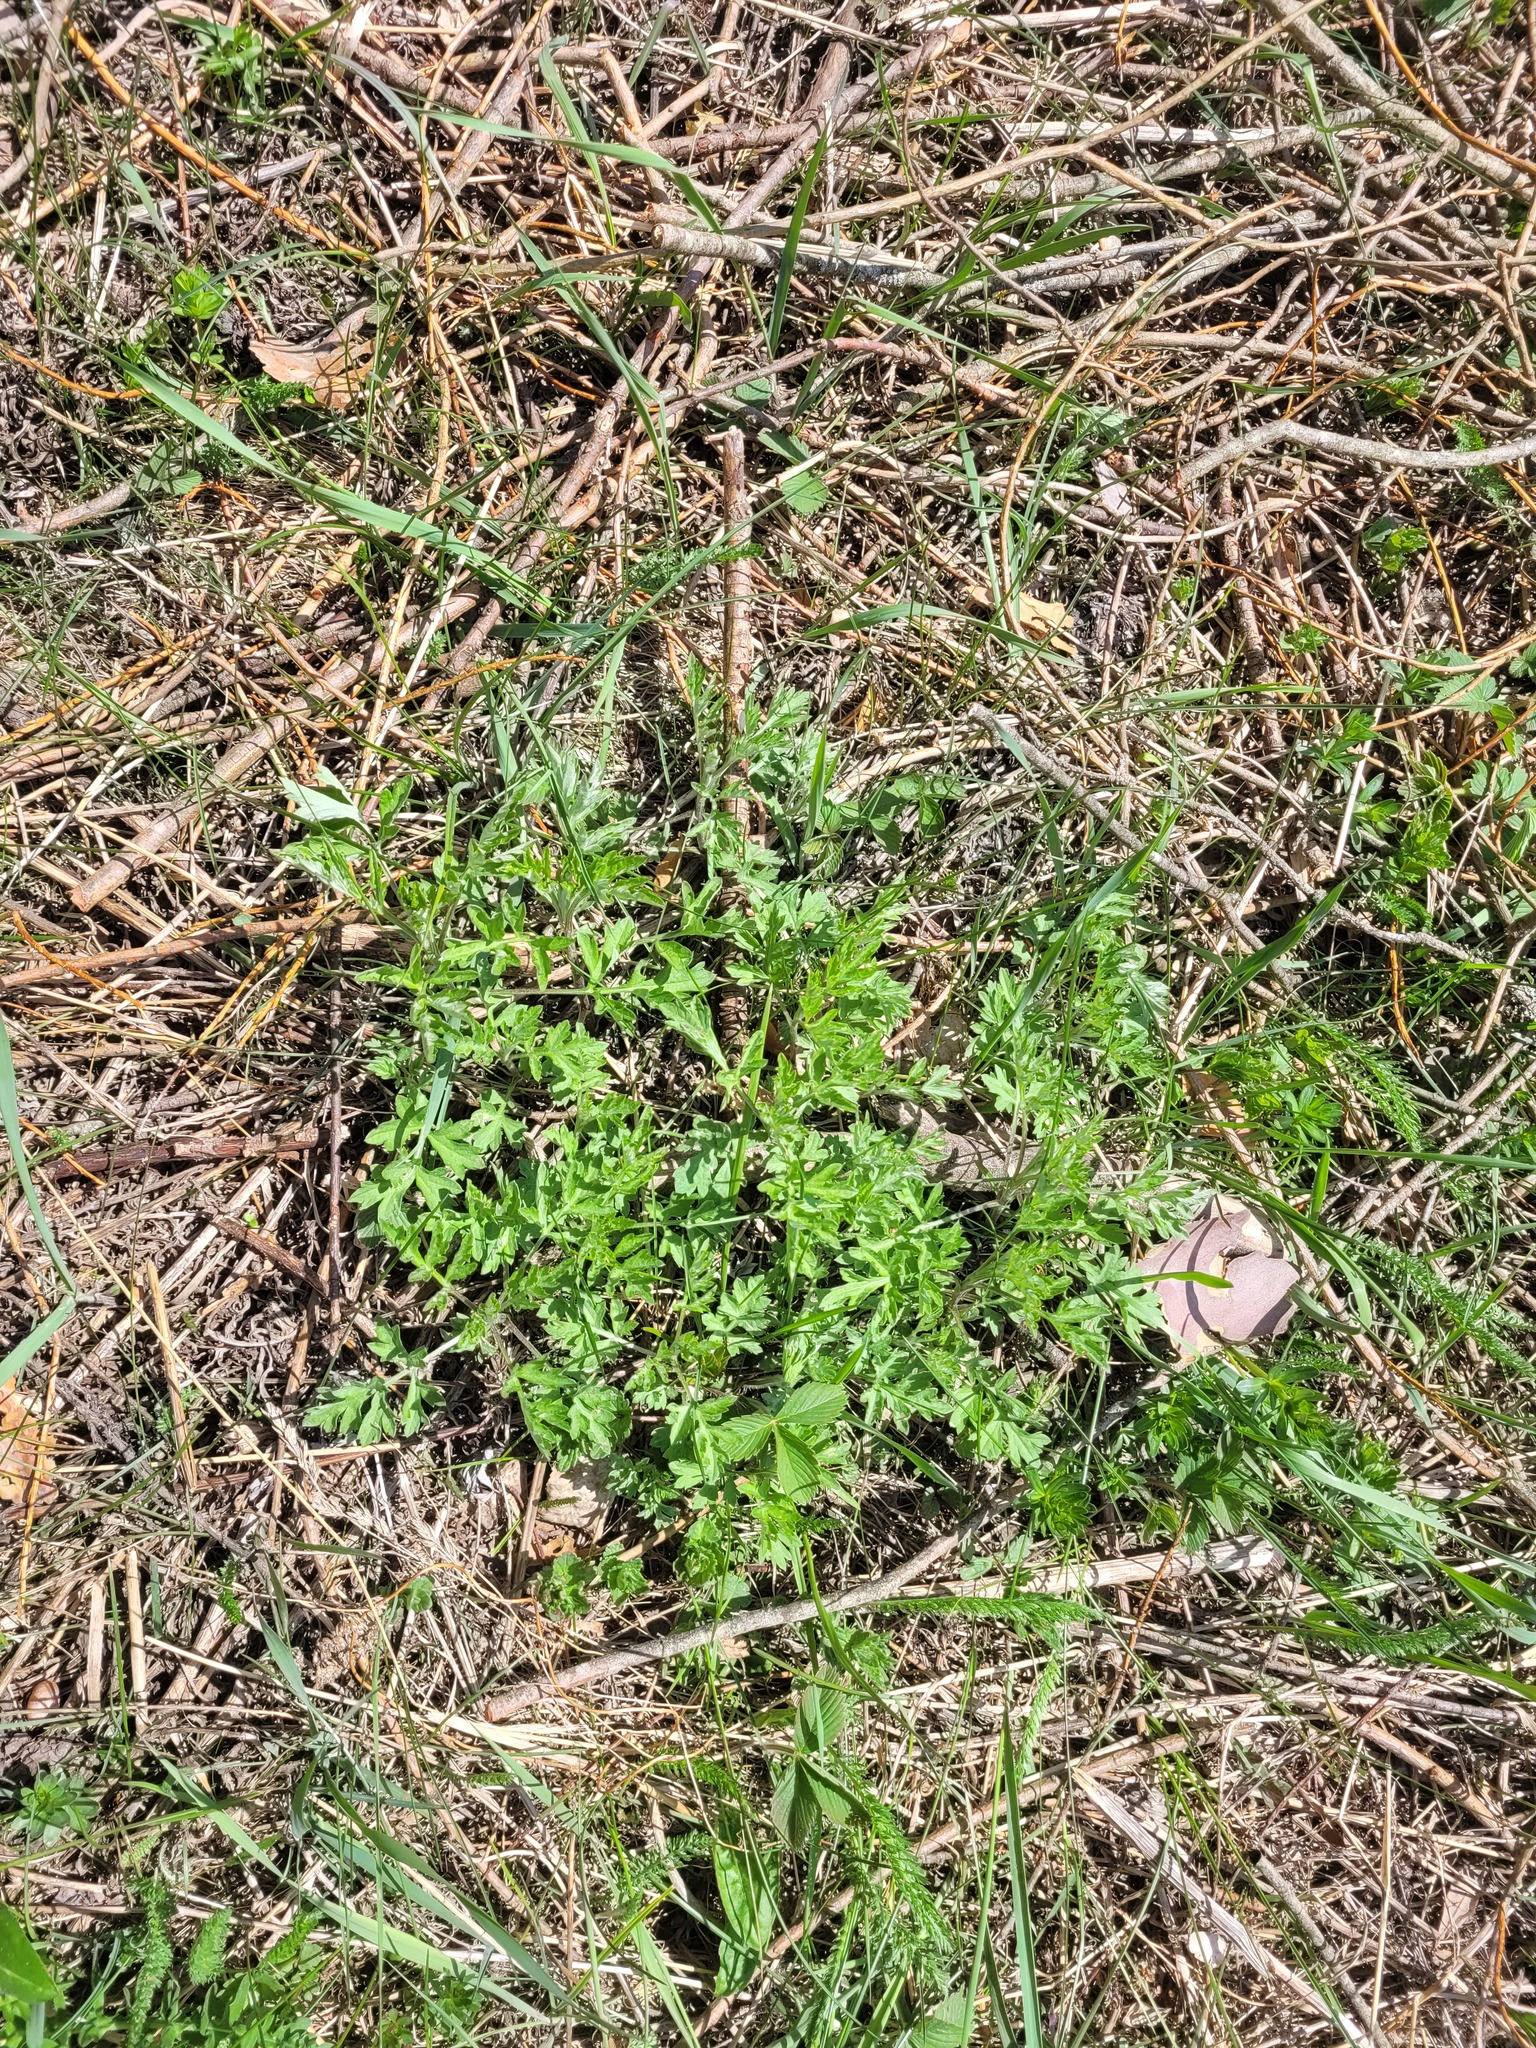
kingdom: Plantae
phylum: Tracheophyta
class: Magnoliopsida
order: Asterales
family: Asteraceae
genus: Artemisia
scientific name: Artemisia vulgaris
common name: Mugwort
